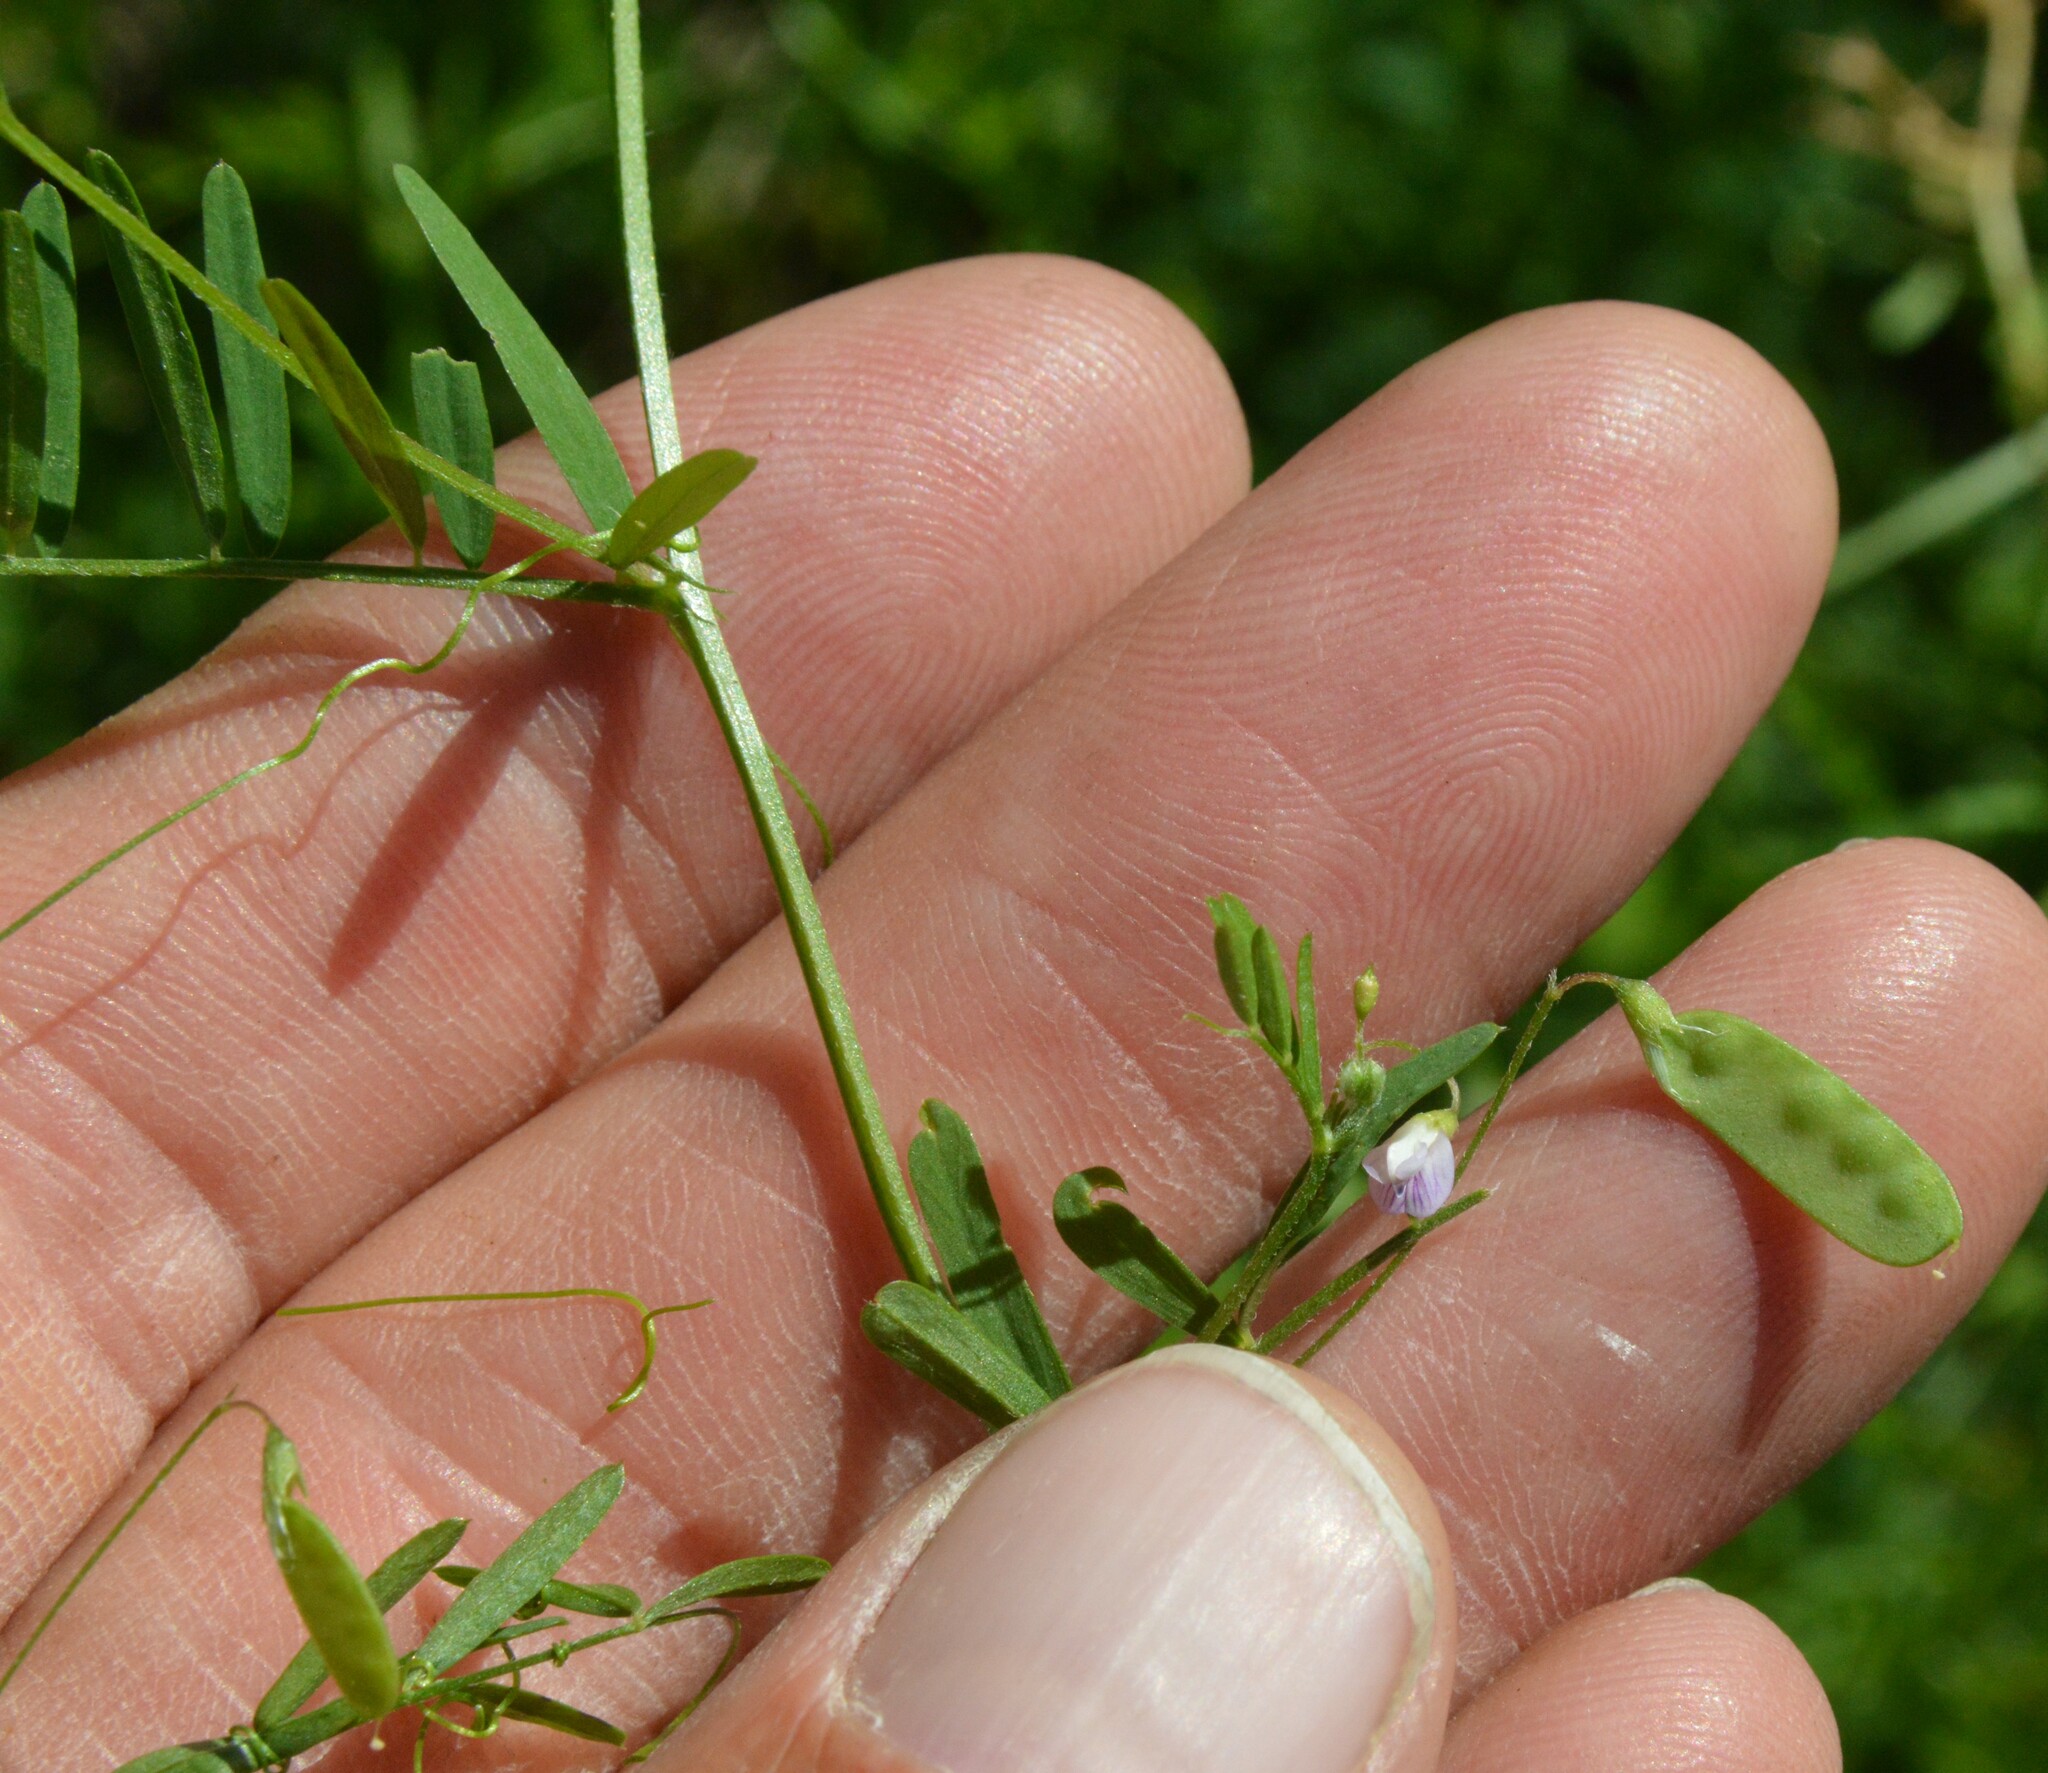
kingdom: Plantae
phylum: Tracheophyta
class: Magnoliopsida
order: Fabales
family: Fabaceae
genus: Vicia
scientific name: Vicia tetrasperma
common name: Smooth tare
